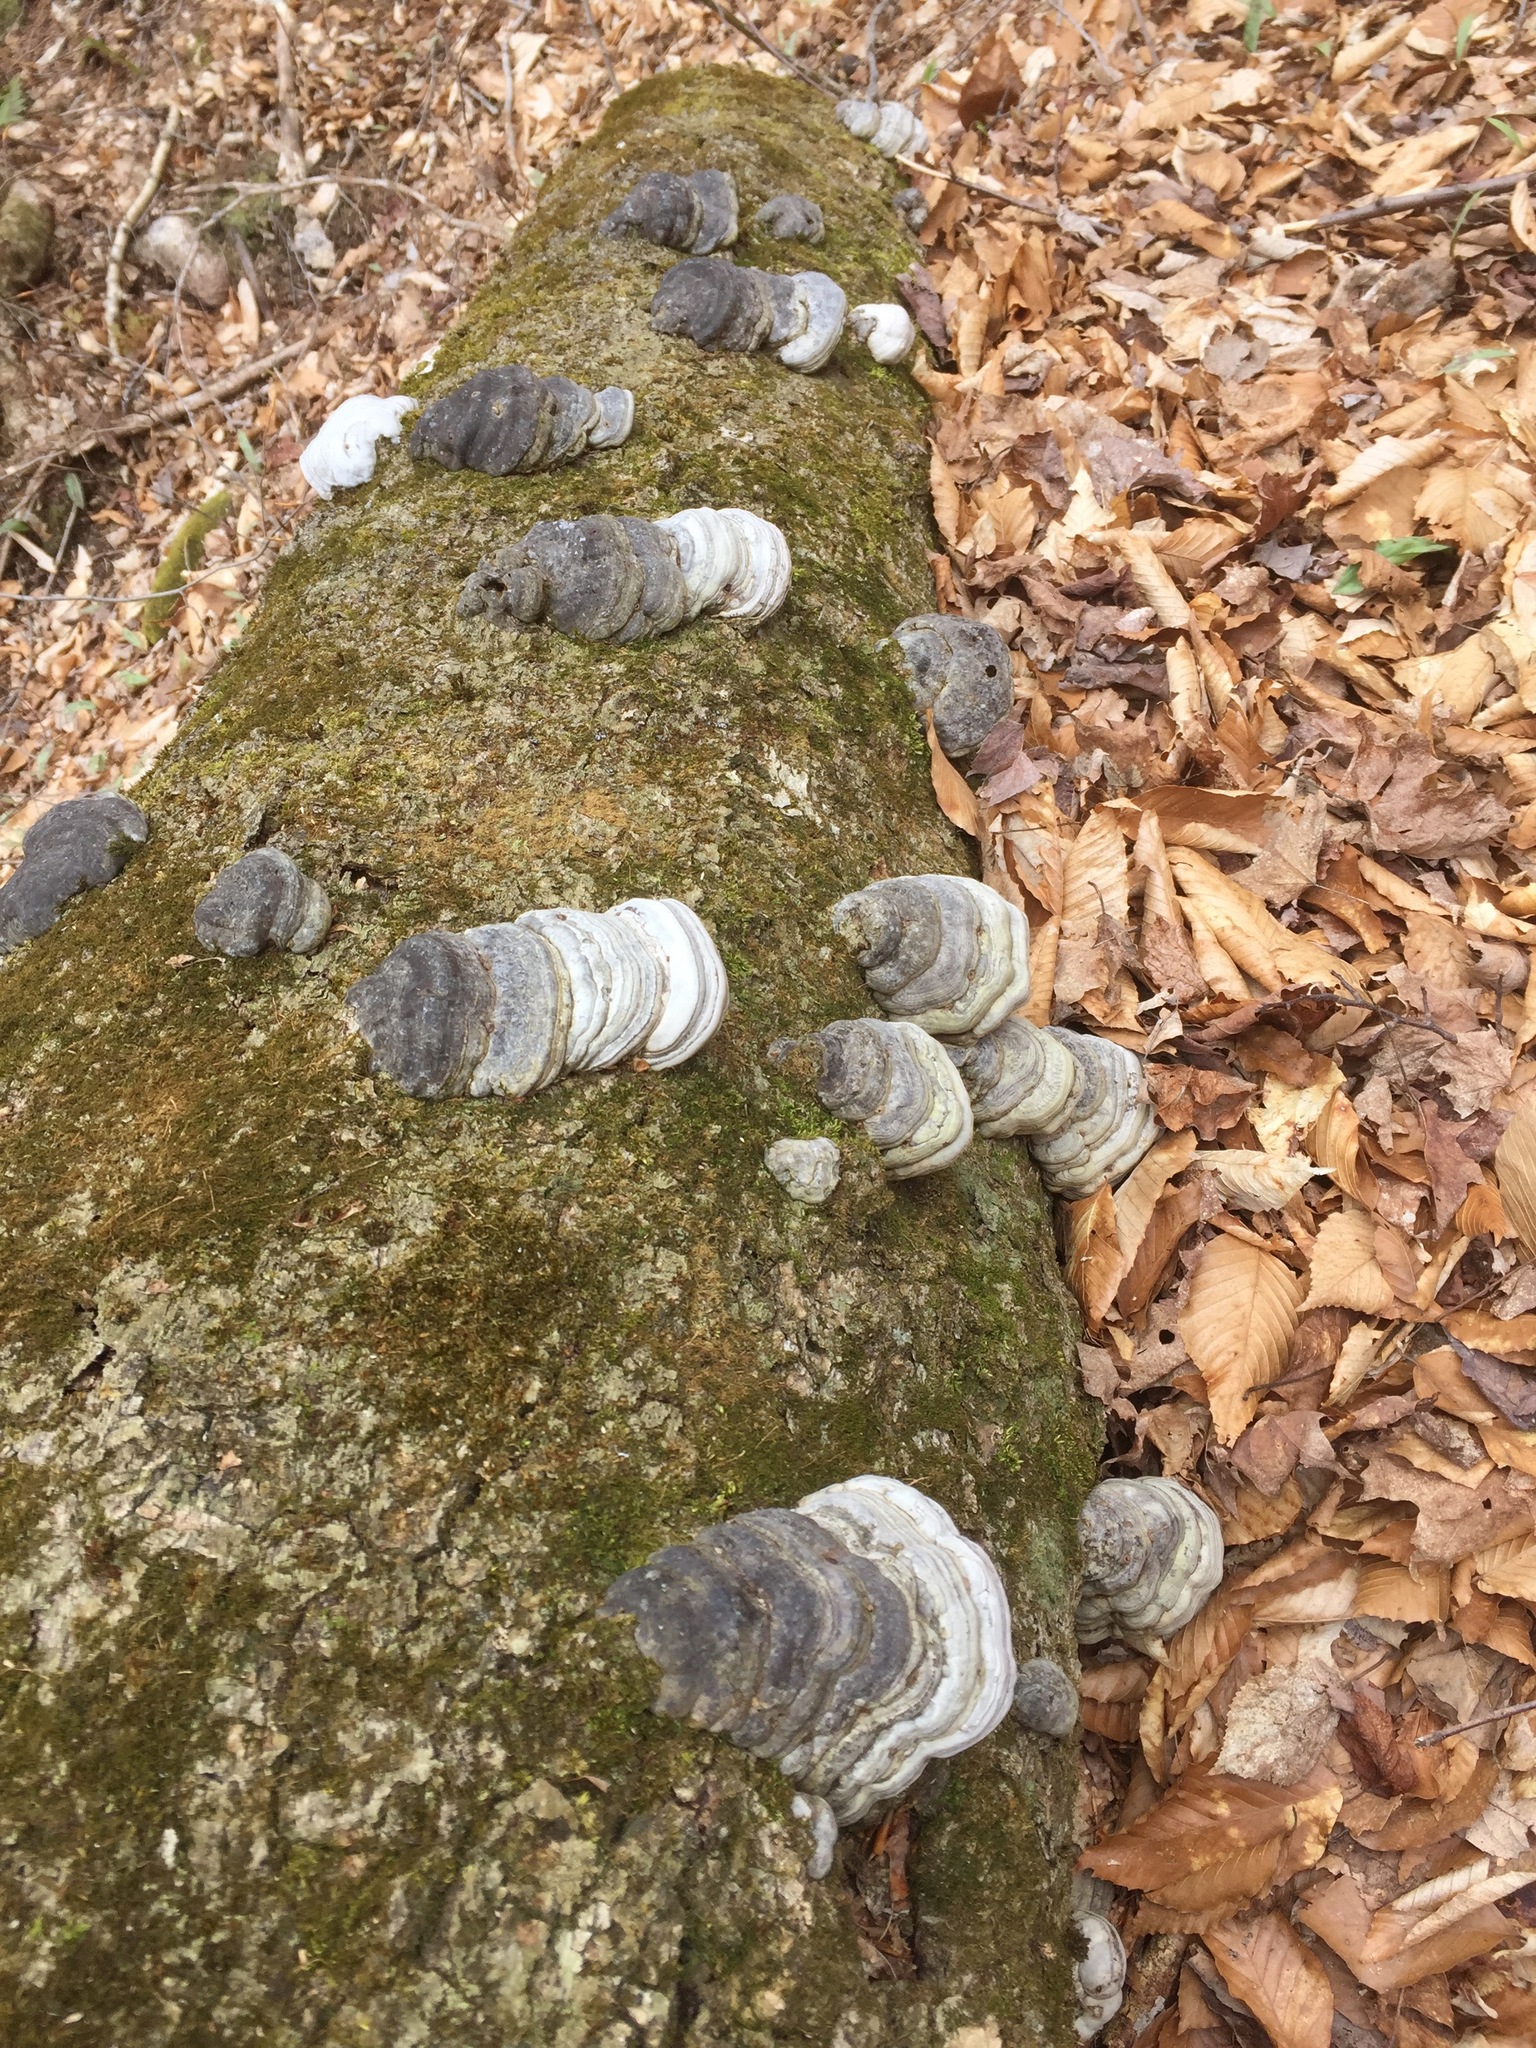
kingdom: Fungi
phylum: Basidiomycota
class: Agaricomycetes
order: Polyporales
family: Polyporaceae
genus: Fomes
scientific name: Fomes fomentarius
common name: Hoof fungus
